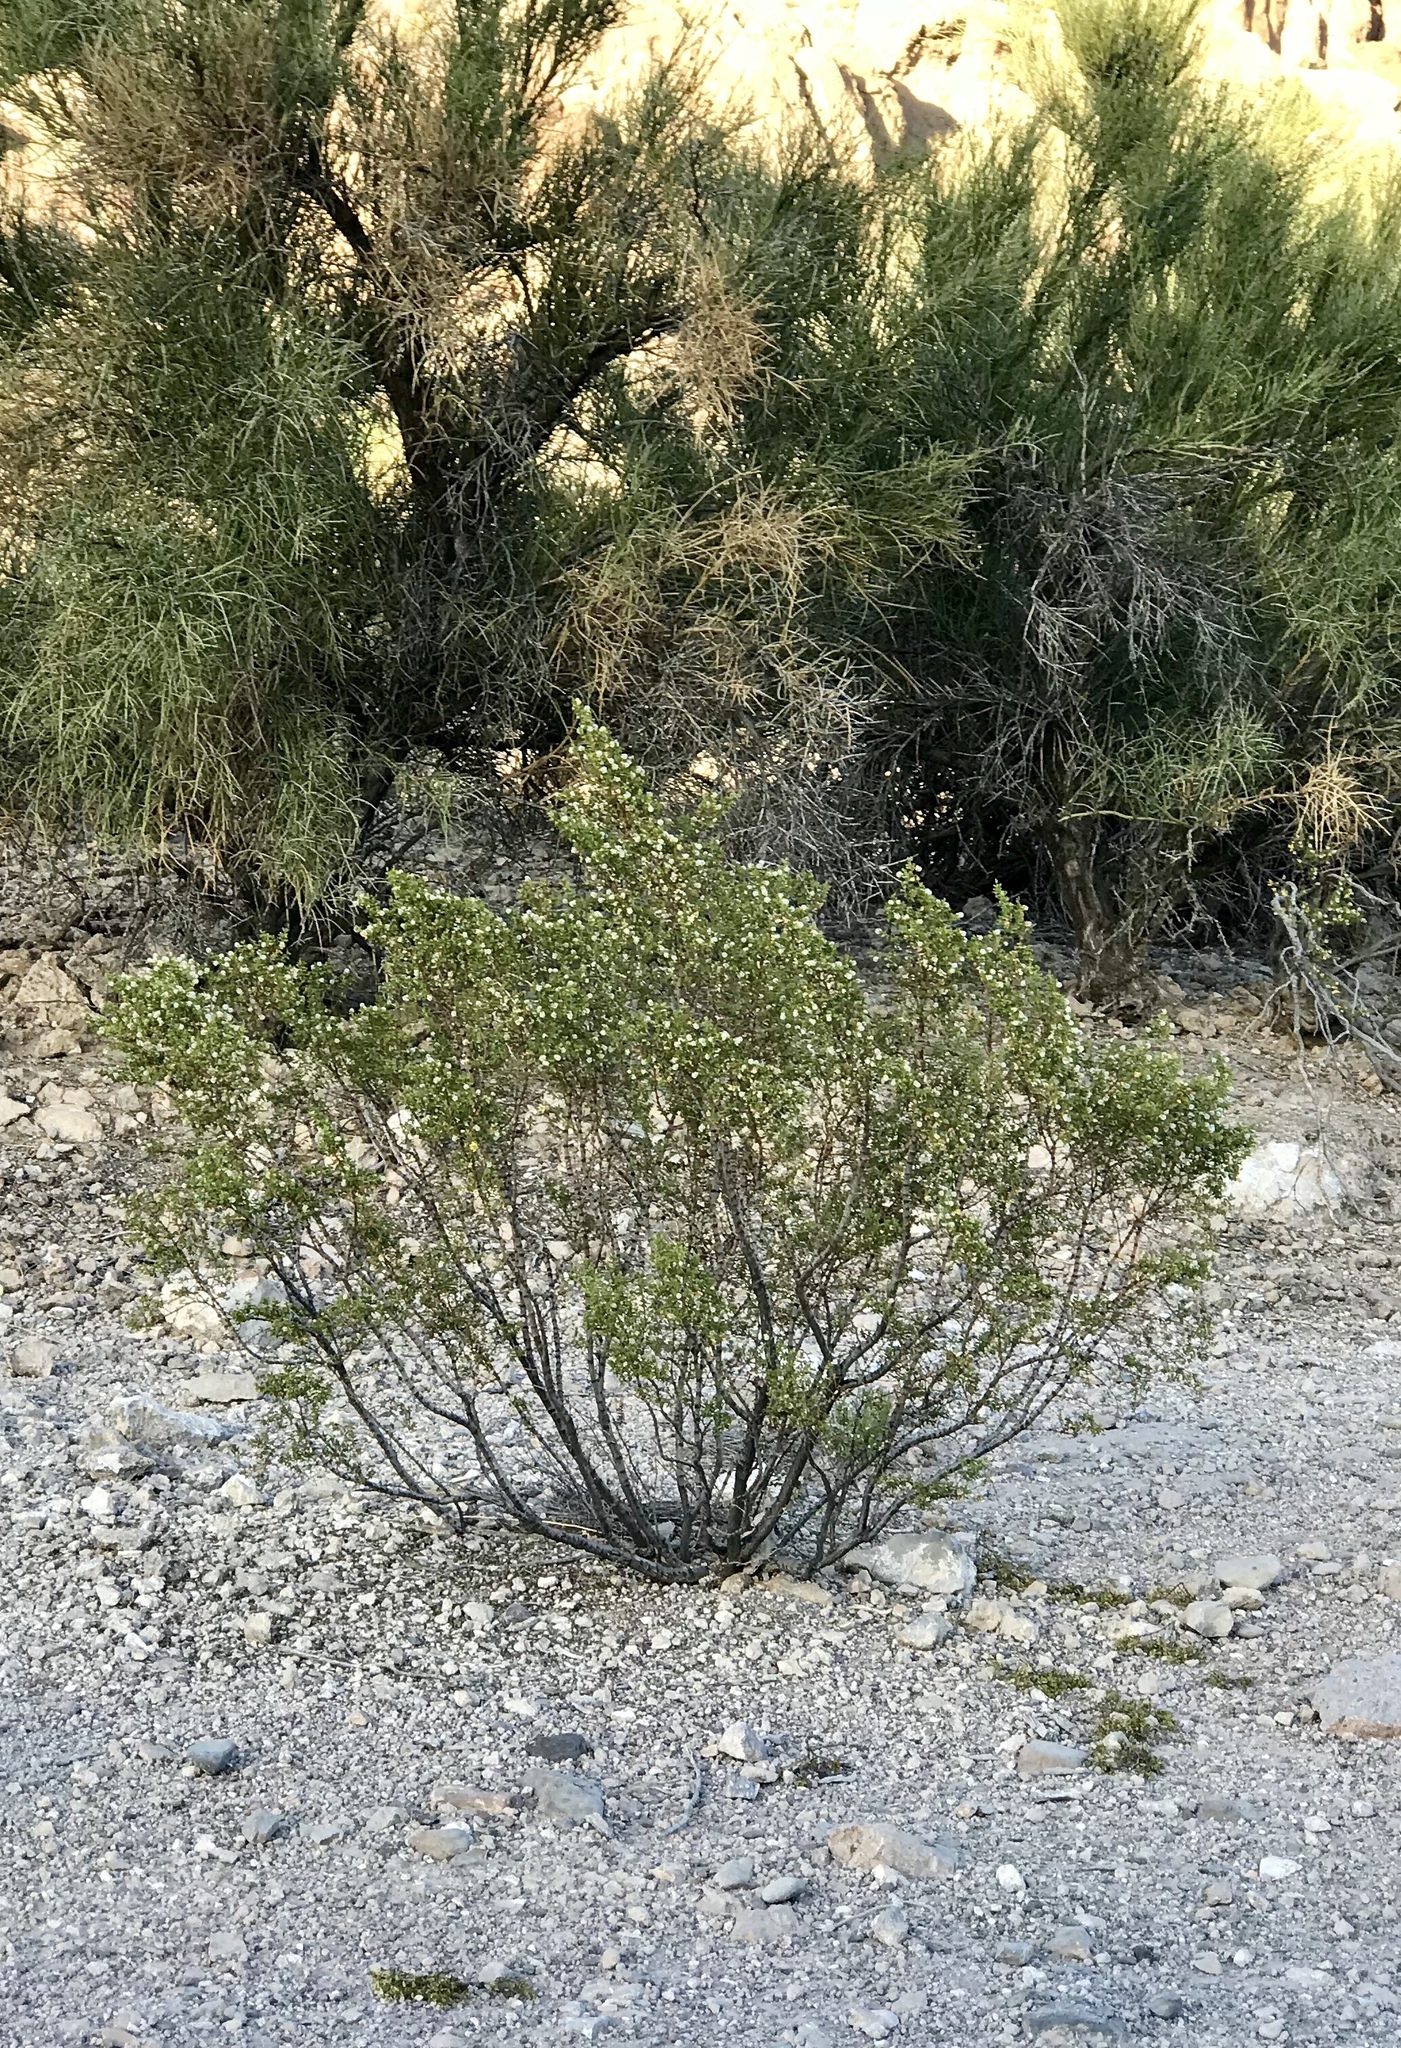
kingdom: Plantae
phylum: Tracheophyta
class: Magnoliopsida
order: Zygophyllales
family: Zygophyllaceae
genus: Larrea
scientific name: Larrea tridentata
